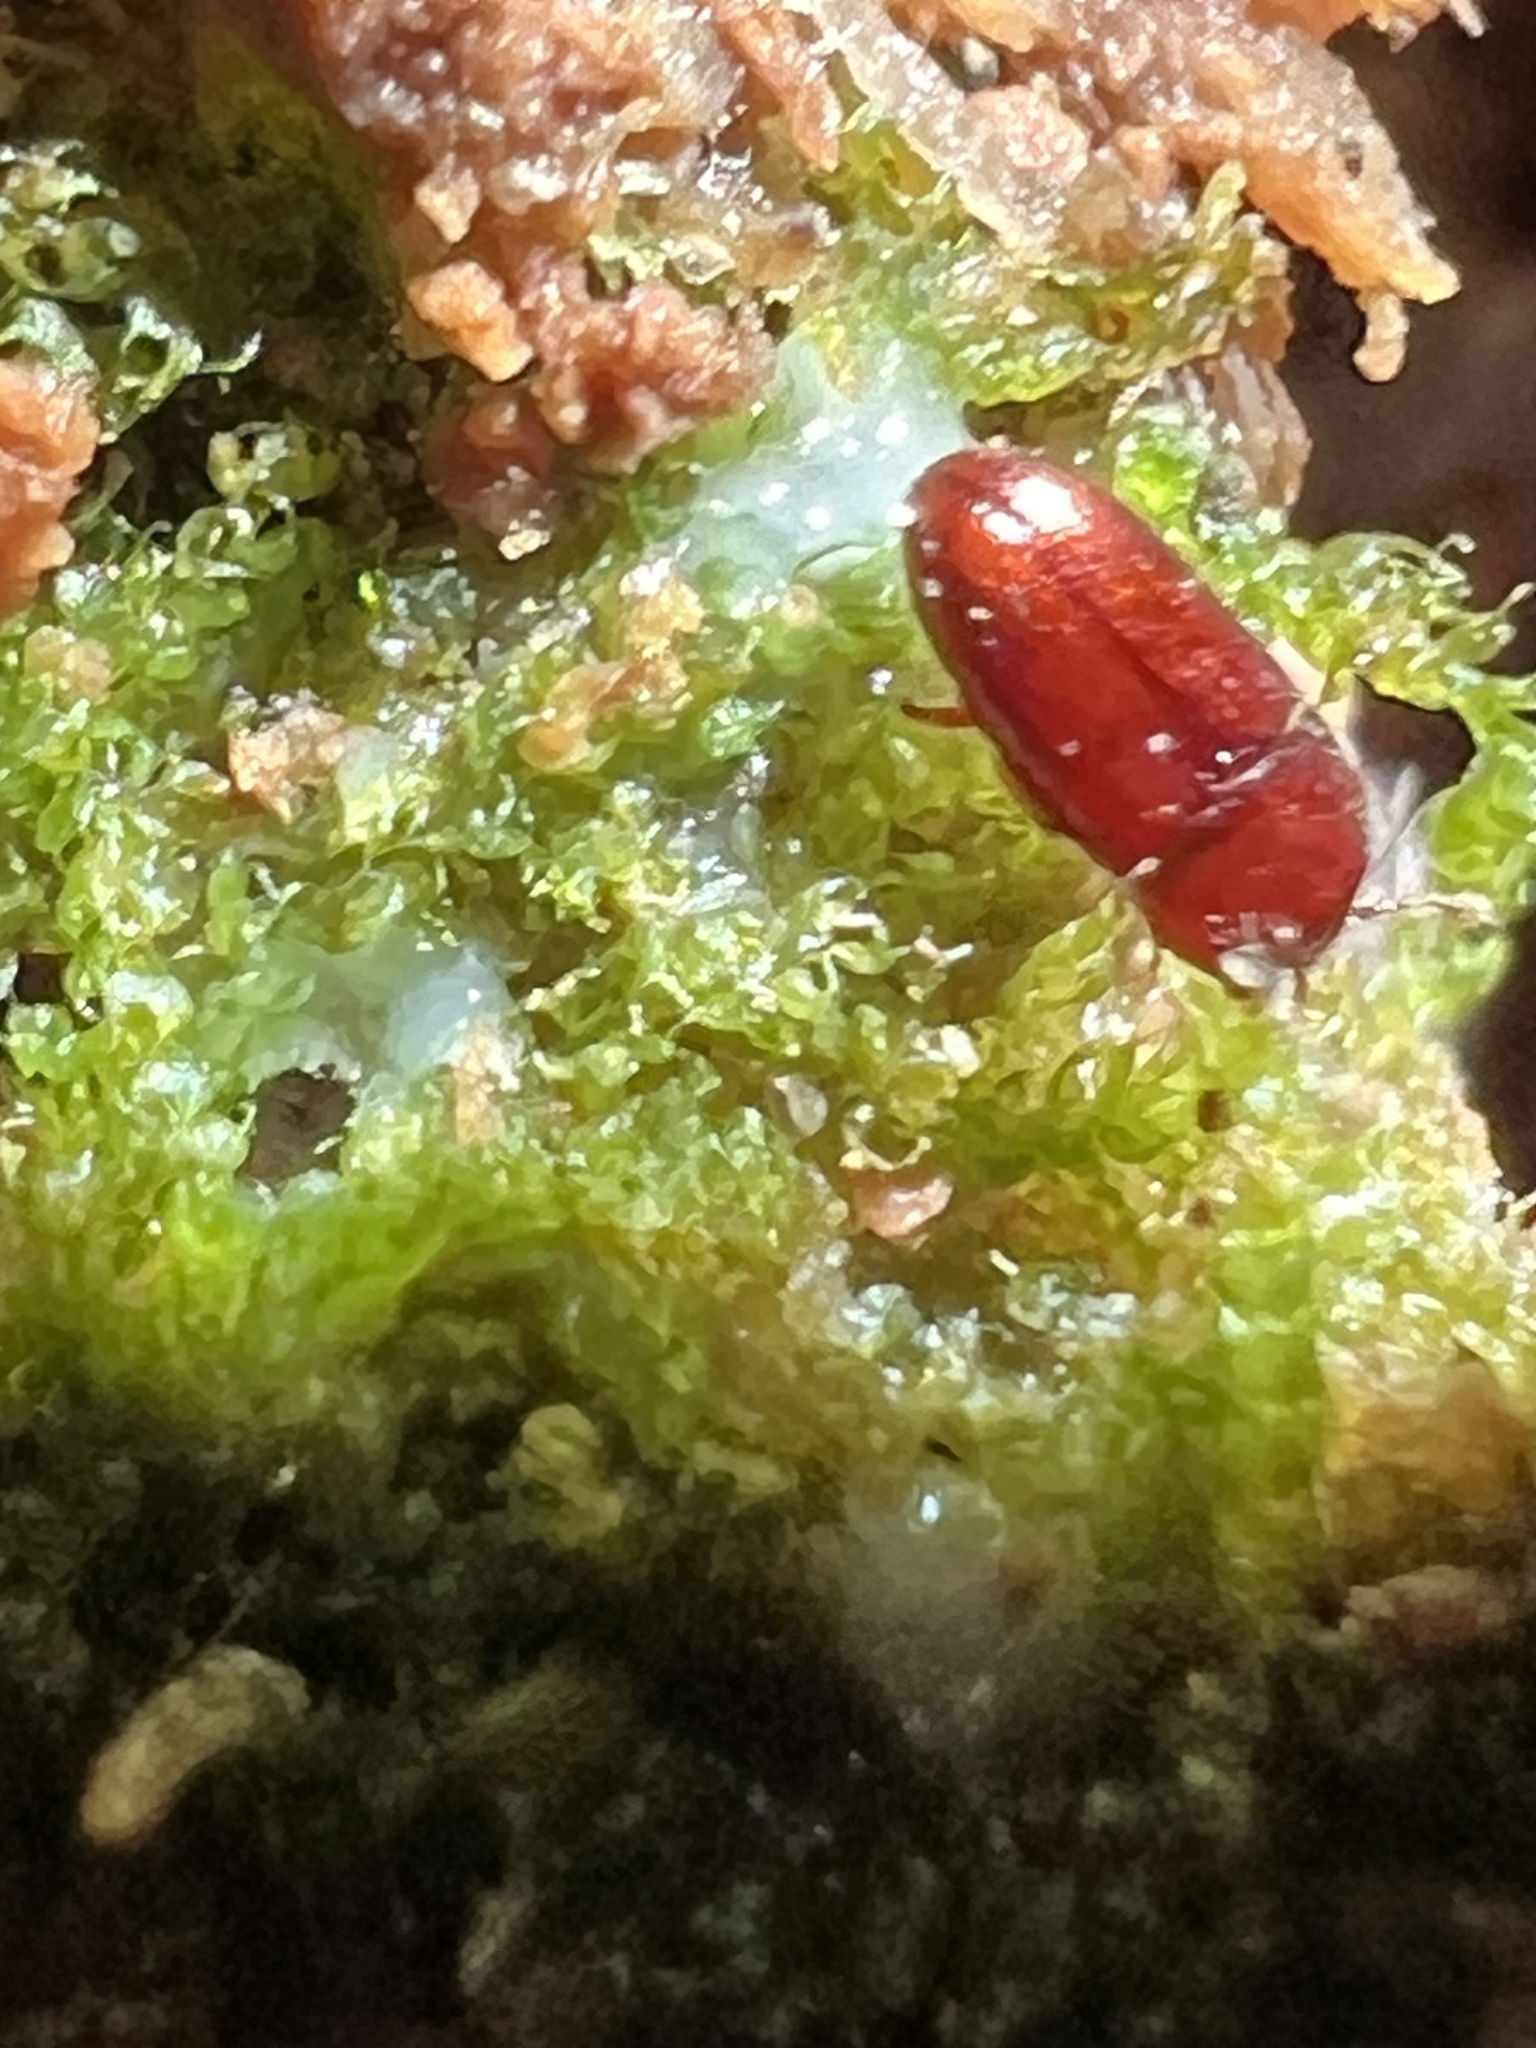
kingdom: Animalia
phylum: Arthropoda
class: Insecta
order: Coleoptera
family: Cerylonidae
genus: Philothermus
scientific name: Philothermus glabriculus
